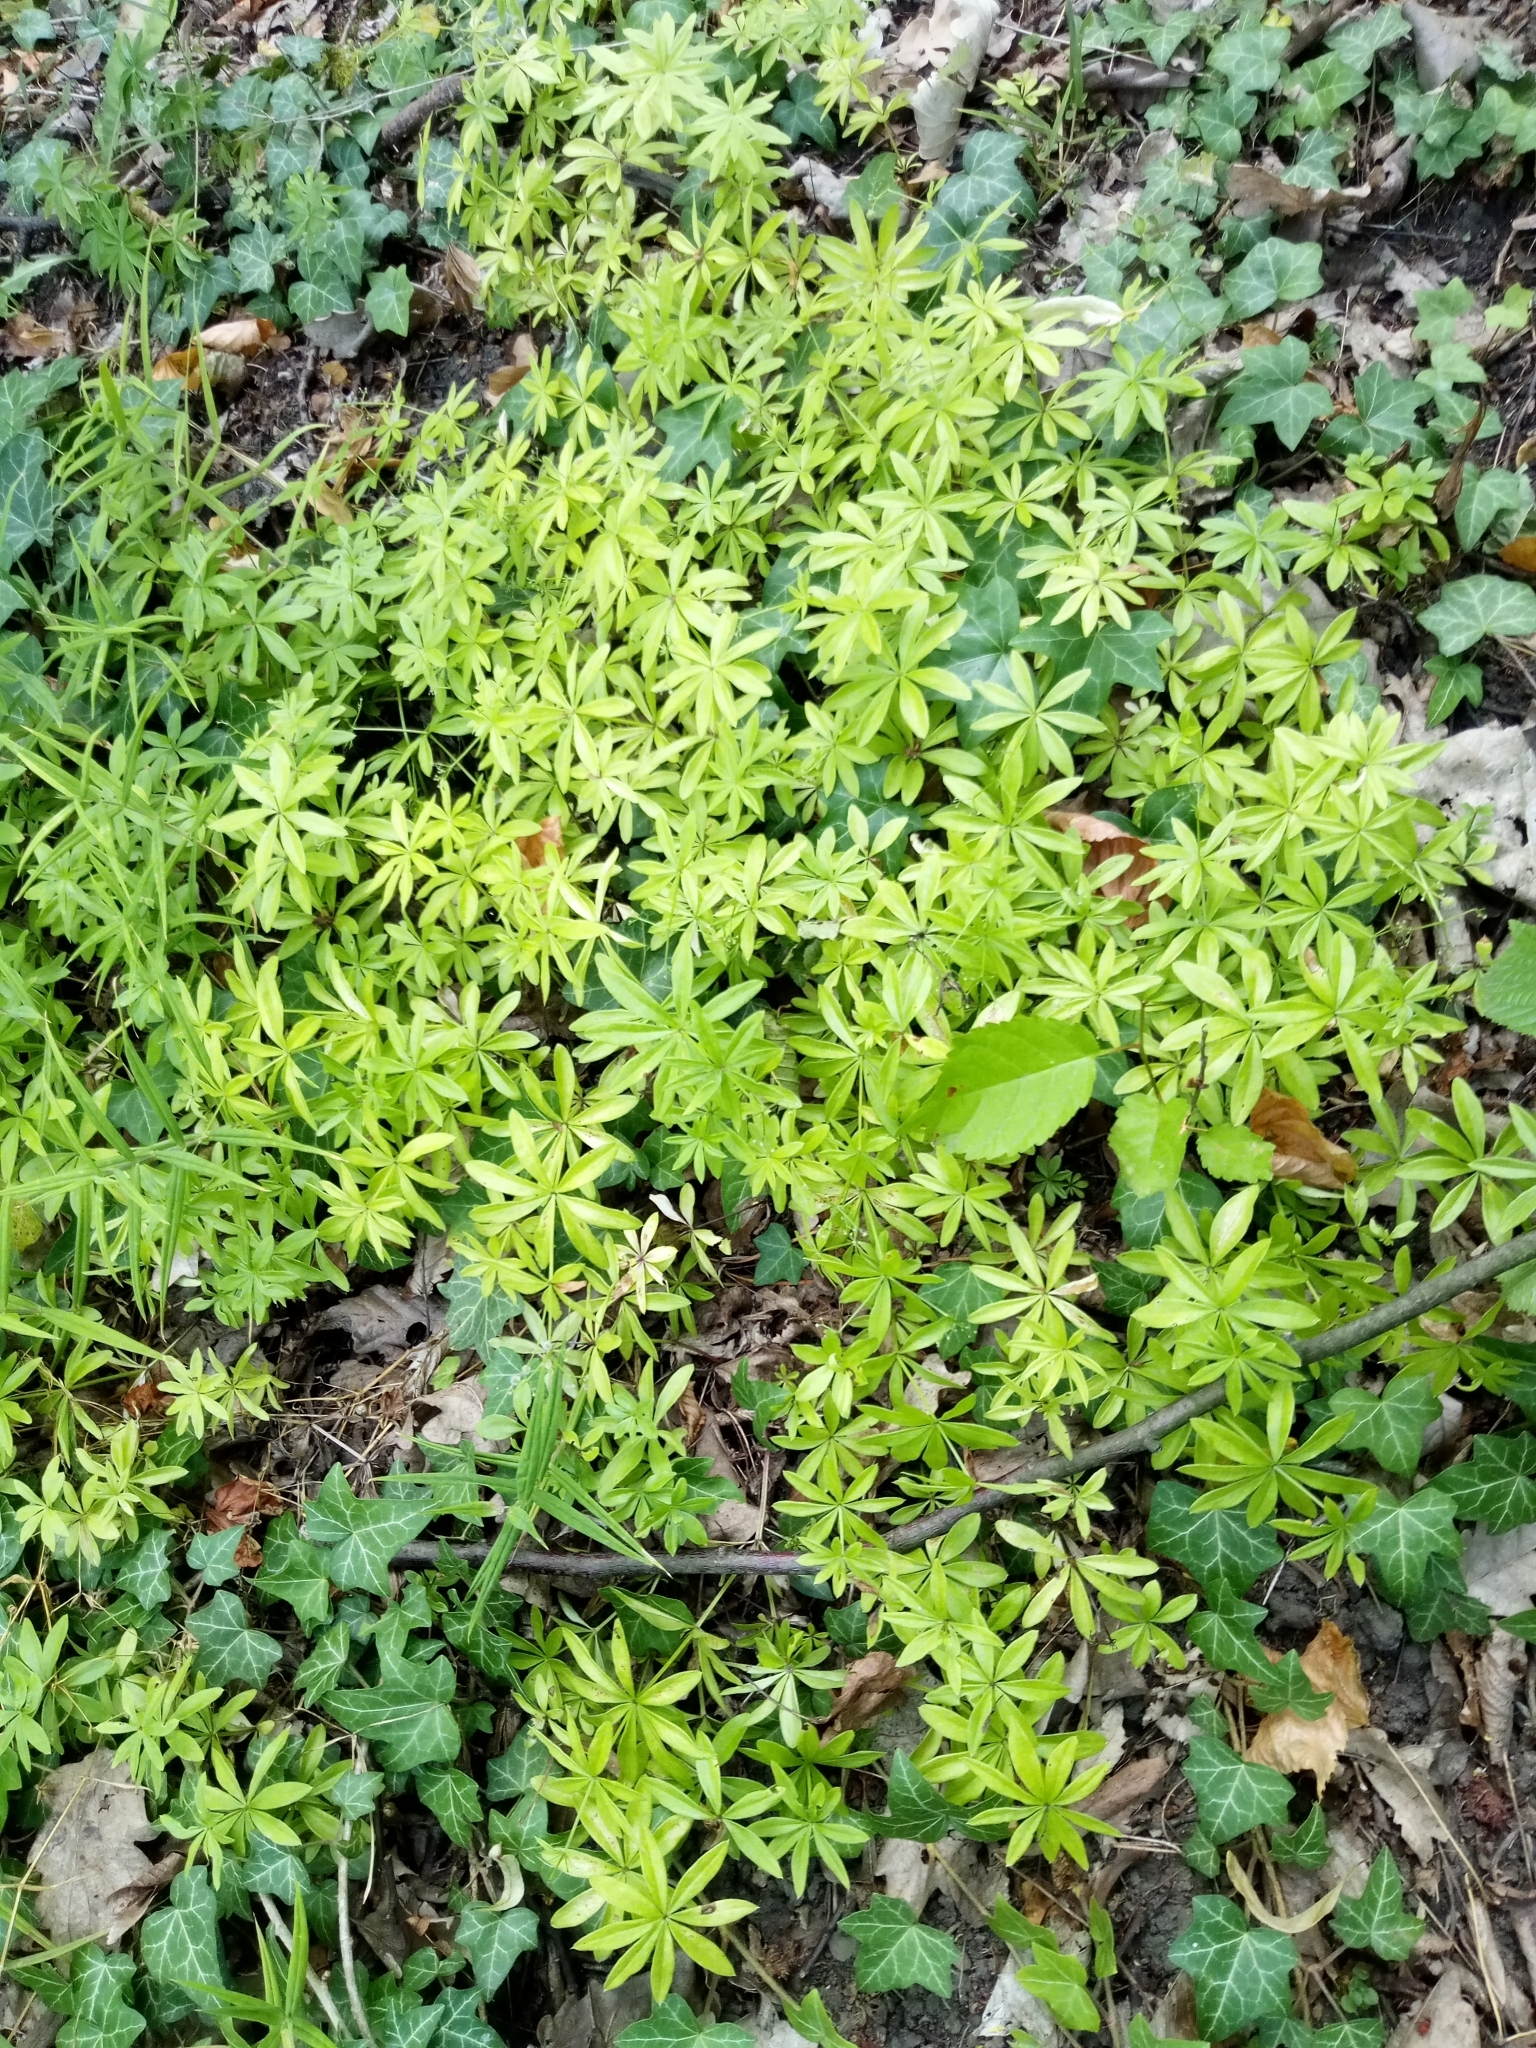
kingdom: Plantae
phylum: Tracheophyta
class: Magnoliopsida
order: Gentianales
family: Rubiaceae
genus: Galium
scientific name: Galium odoratum
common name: Sweet woodruff
